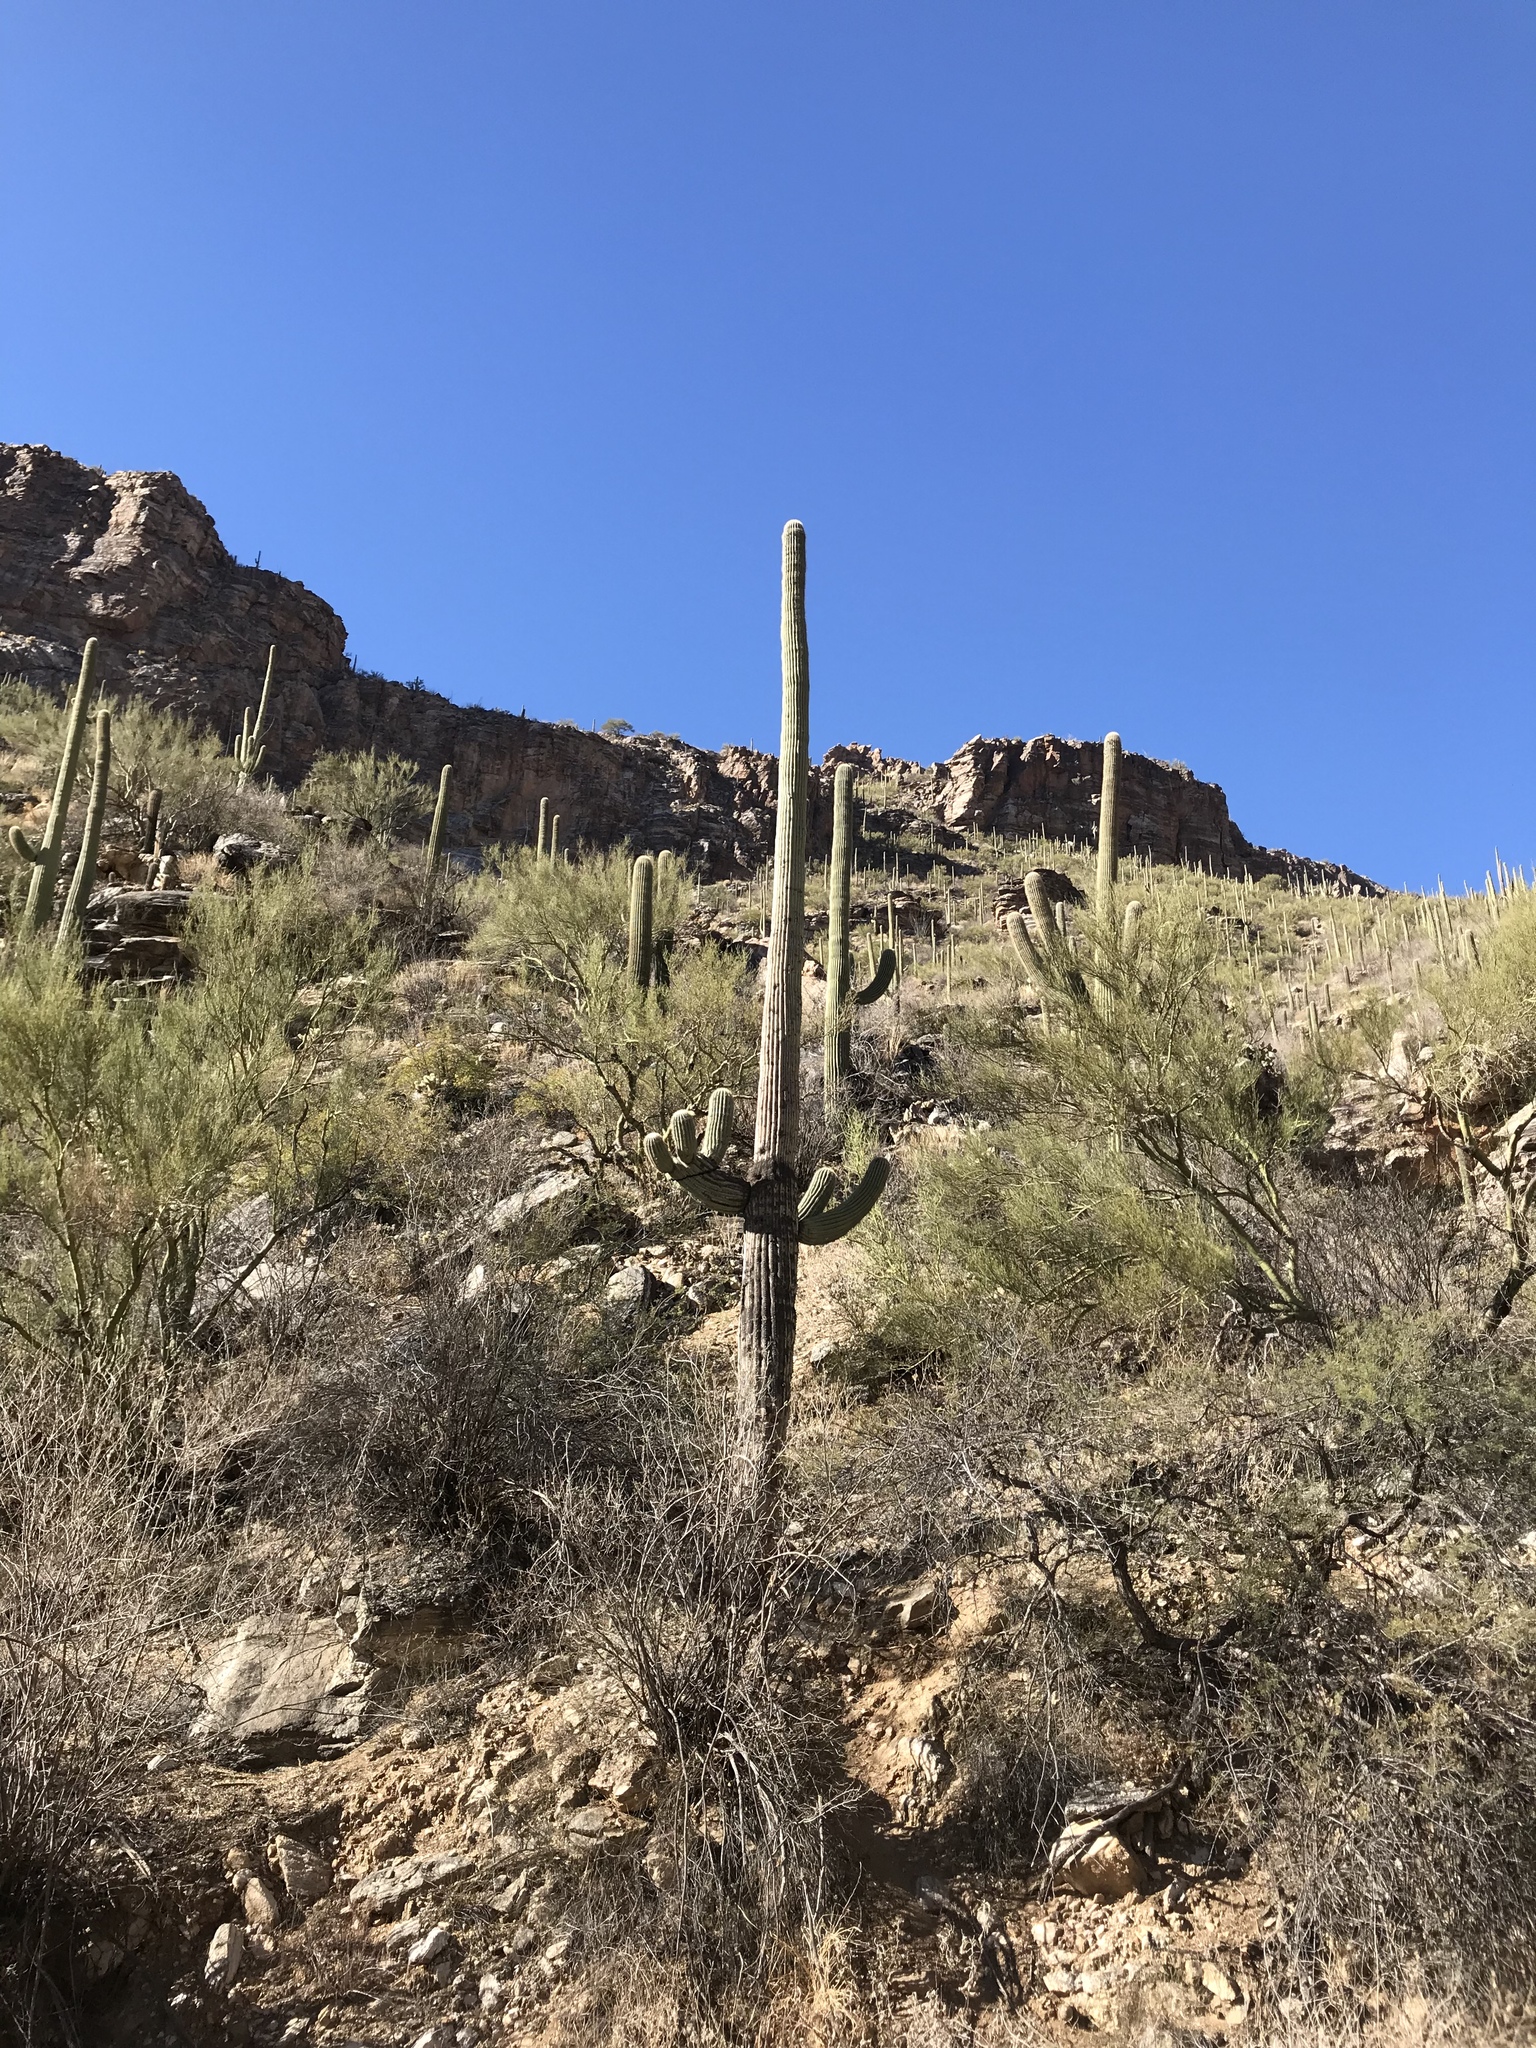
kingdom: Plantae
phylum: Tracheophyta
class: Magnoliopsida
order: Caryophyllales
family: Cactaceae
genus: Carnegiea
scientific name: Carnegiea gigantea
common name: Saguaro
